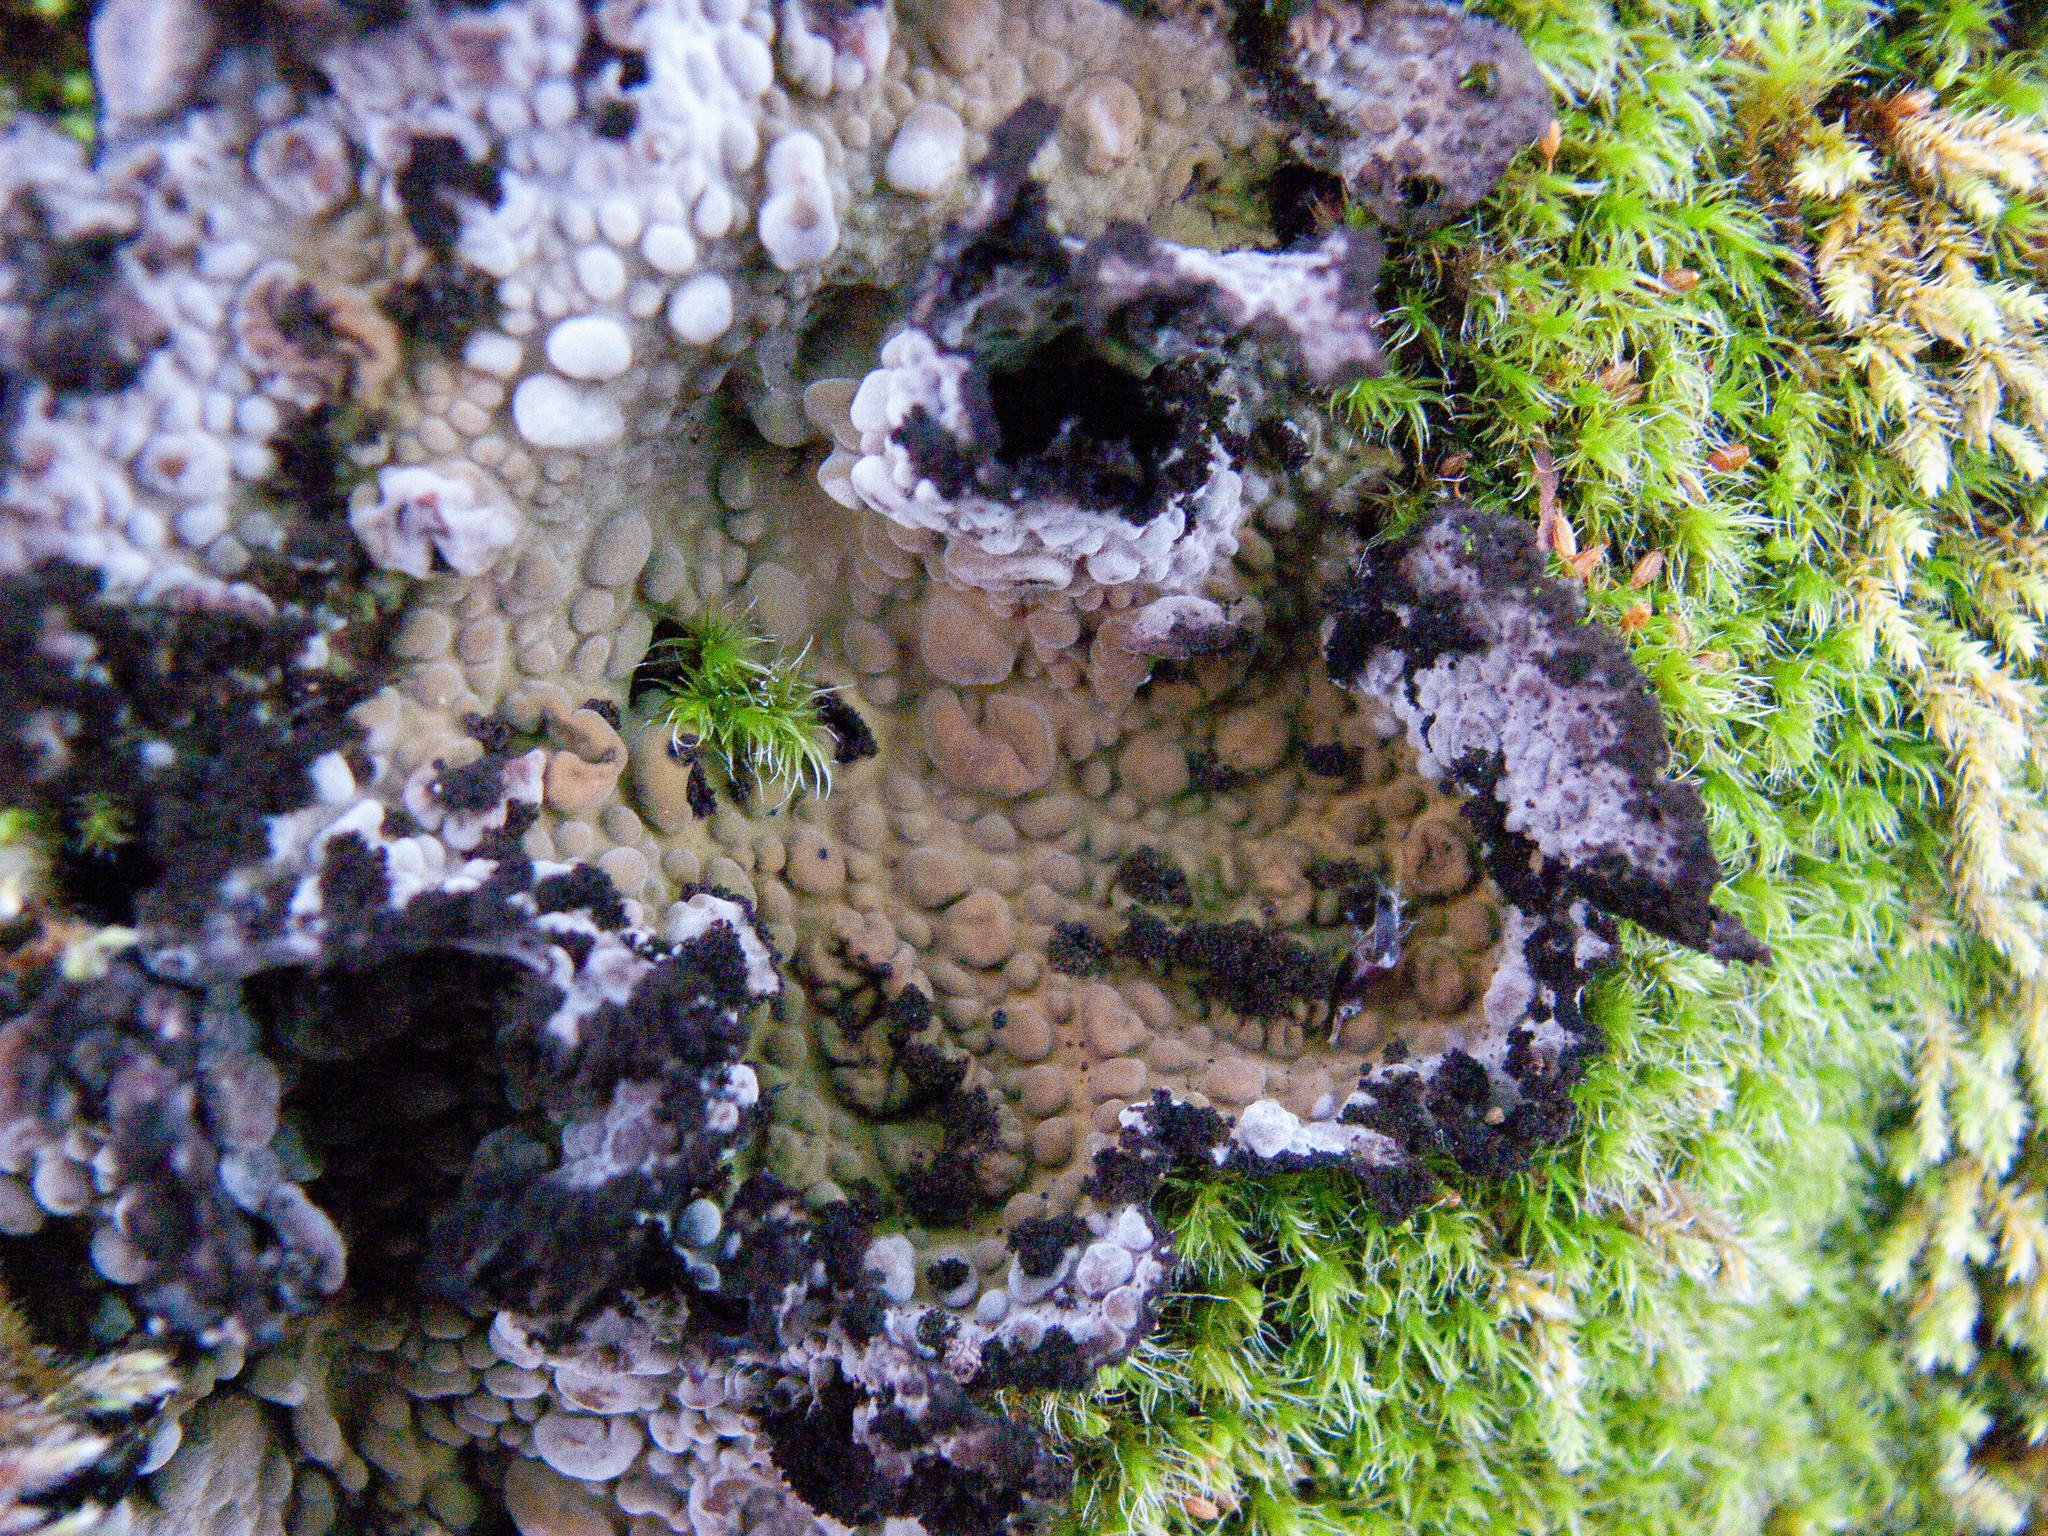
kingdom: Fungi
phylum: Ascomycota
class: Lecanoromycetes
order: Umbilicariales
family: Umbilicariaceae
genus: Lasallia
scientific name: Lasallia pustulata
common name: Blistered toadskin lichen
